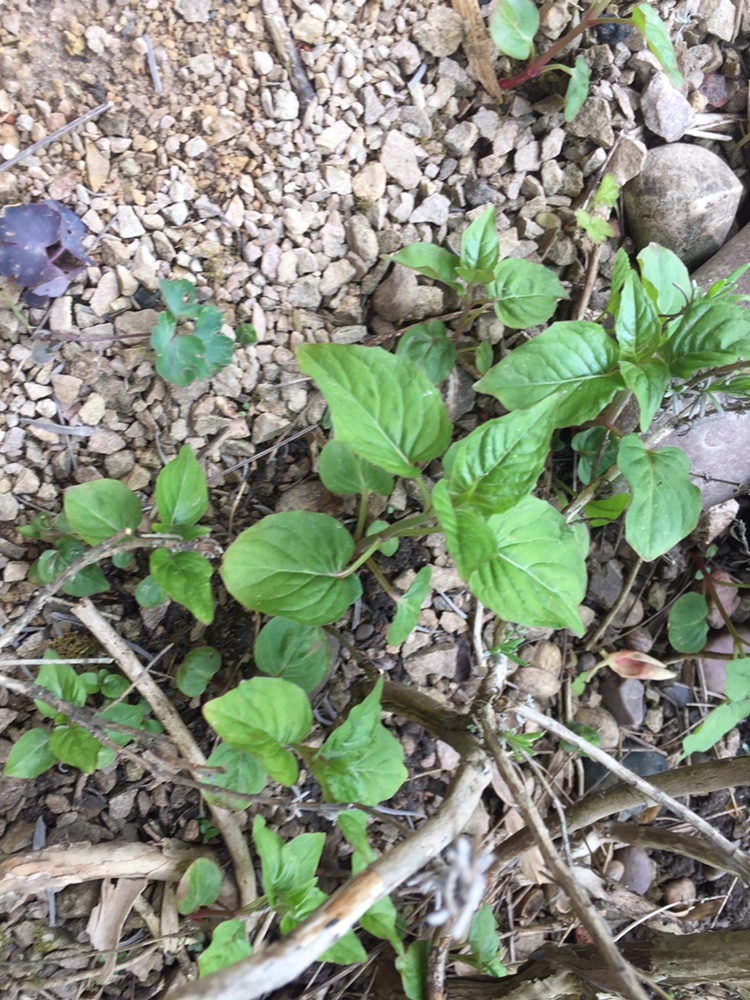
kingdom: Plantae
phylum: Tracheophyta
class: Magnoliopsida
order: Myrtales
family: Onagraceae
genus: Circaea
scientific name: Circaea lutetiana
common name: Enchanter's-nightshade
